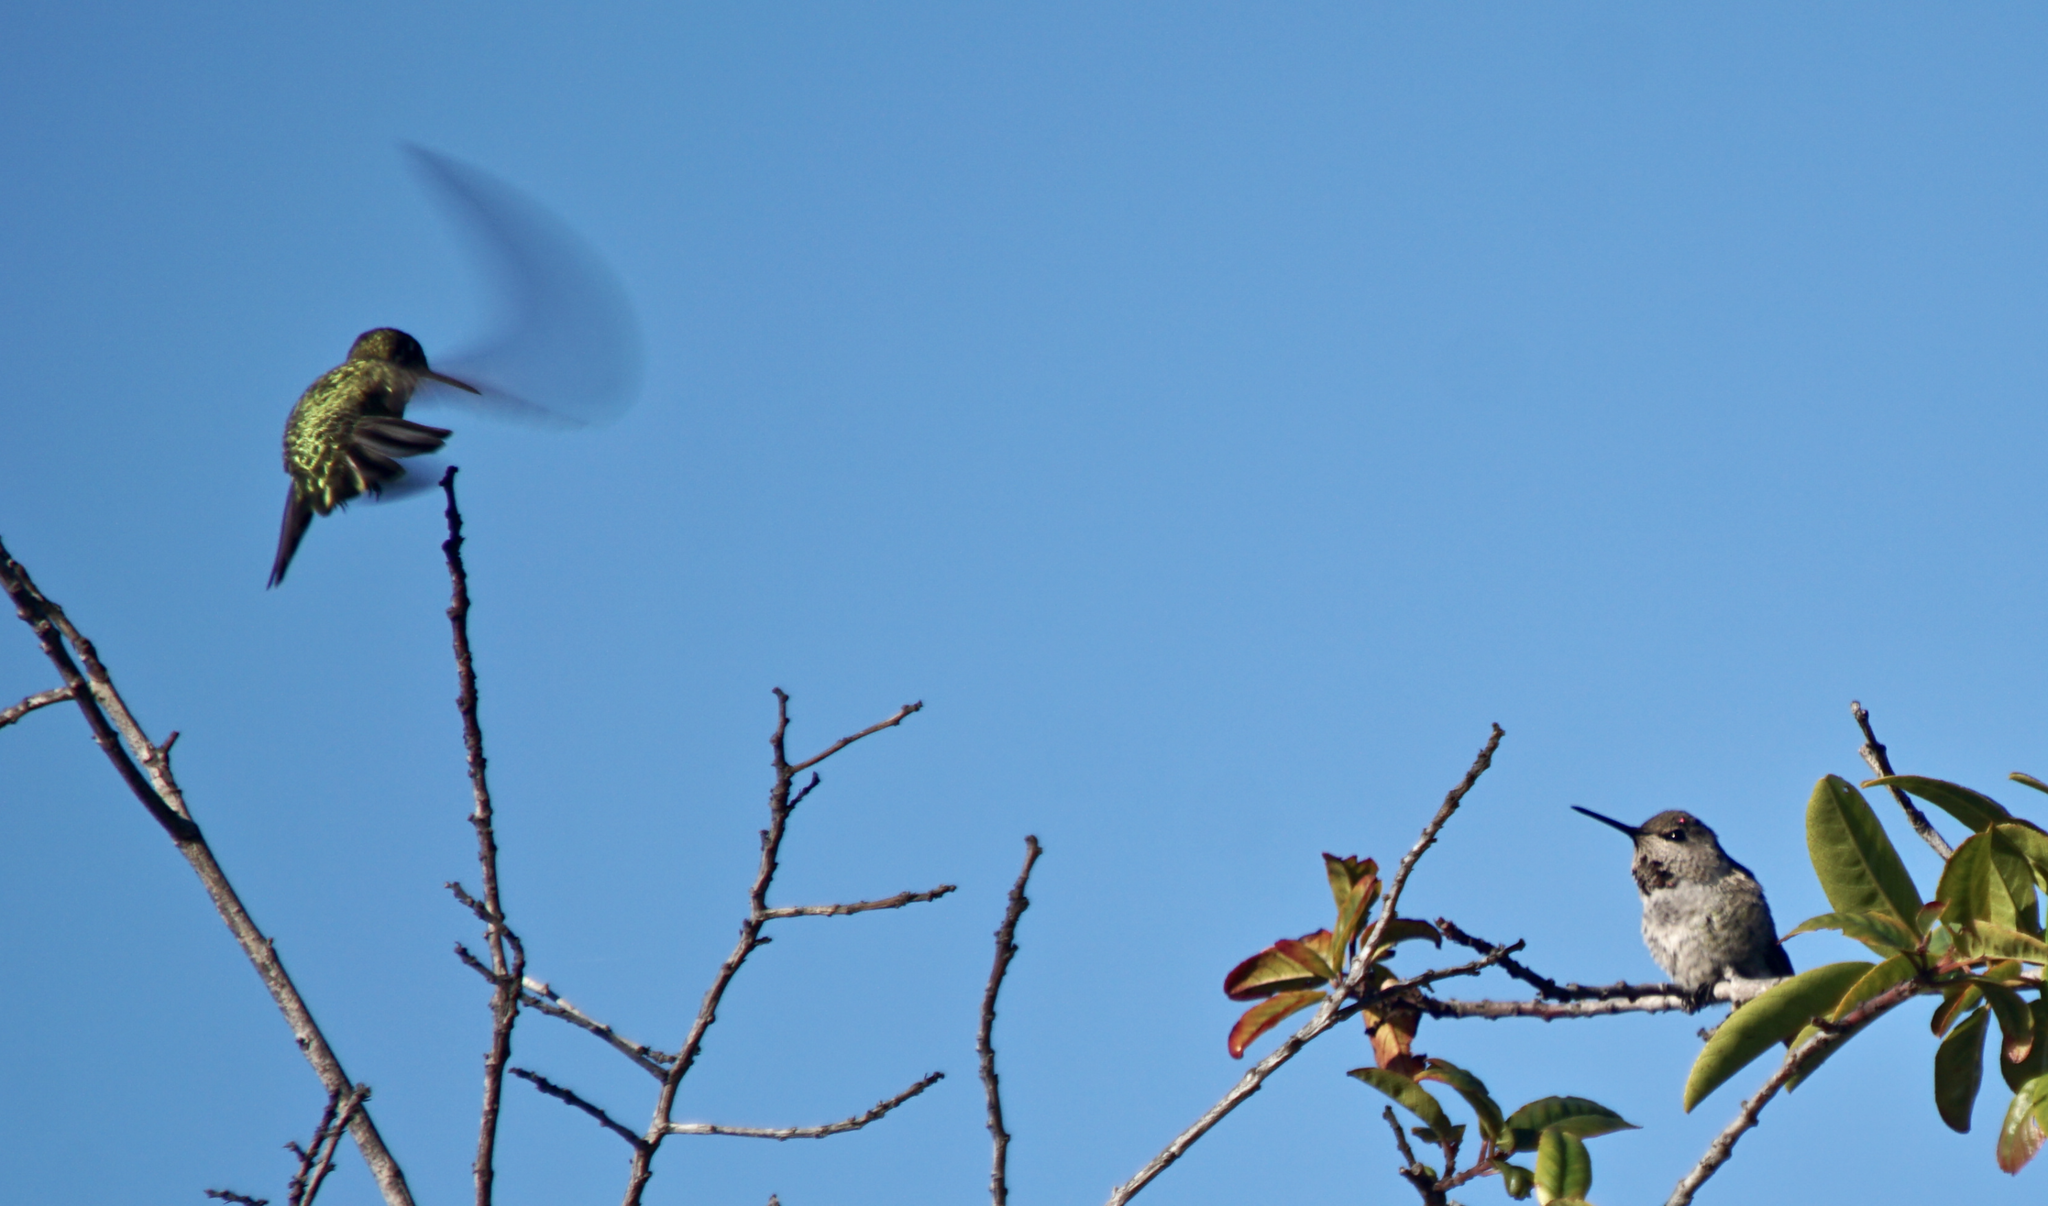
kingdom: Animalia
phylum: Chordata
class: Aves
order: Apodiformes
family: Trochilidae
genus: Calypte
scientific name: Calypte anna
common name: Anna's hummingbird
